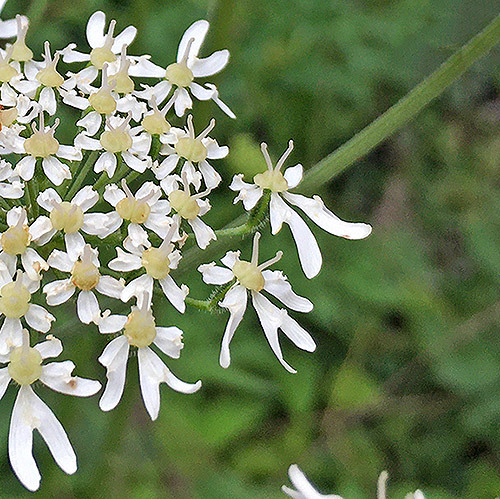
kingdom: Plantae
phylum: Tracheophyta
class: Magnoliopsida
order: Apiales
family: Apiaceae
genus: Heracleum
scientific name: Heracleum sphondylium
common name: Hogweed
